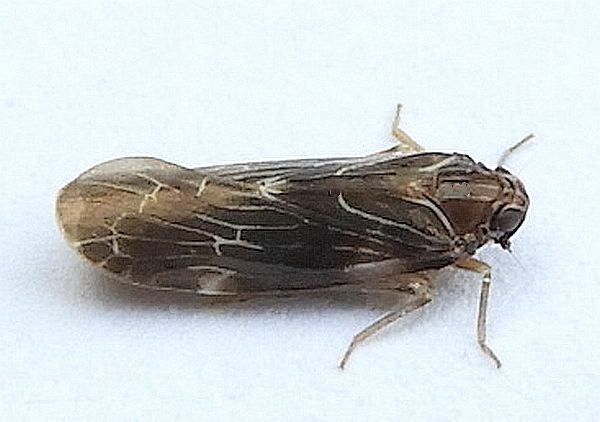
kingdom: Animalia
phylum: Arthropoda
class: Insecta
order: Hemiptera
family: Achilidae
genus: Synecdoche
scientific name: Synecdoche dimidiata
